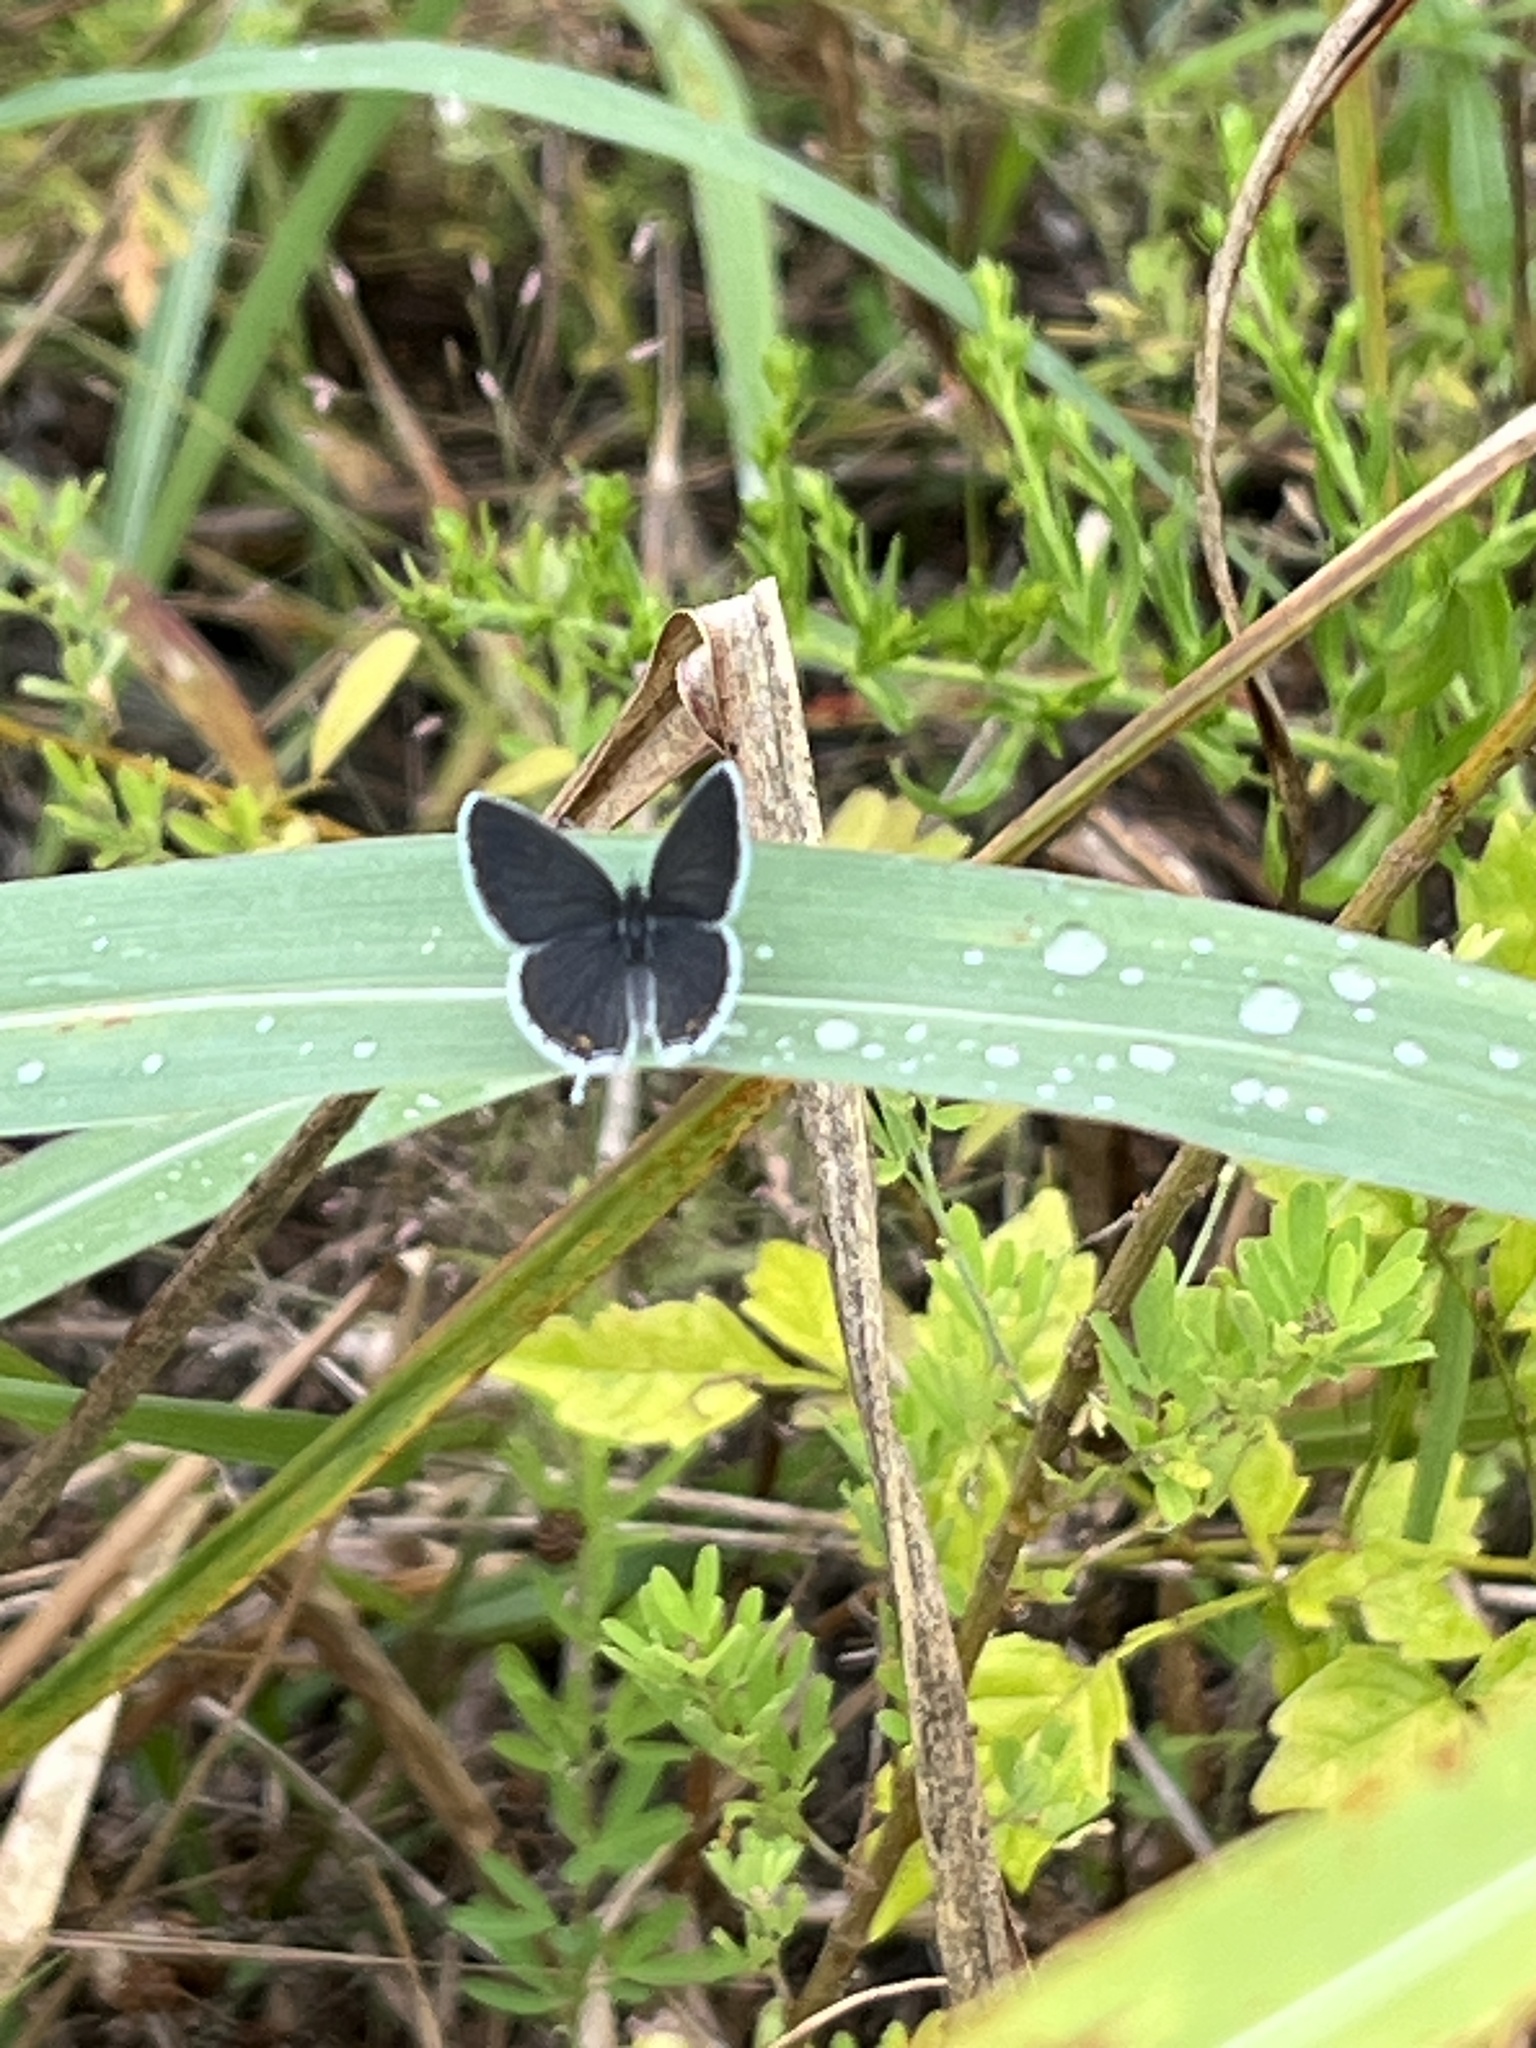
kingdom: Animalia
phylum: Arthropoda
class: Insecta
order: Lepidoptera
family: Lycaenidae
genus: Elkalyce
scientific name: Elkalyce comyntas
